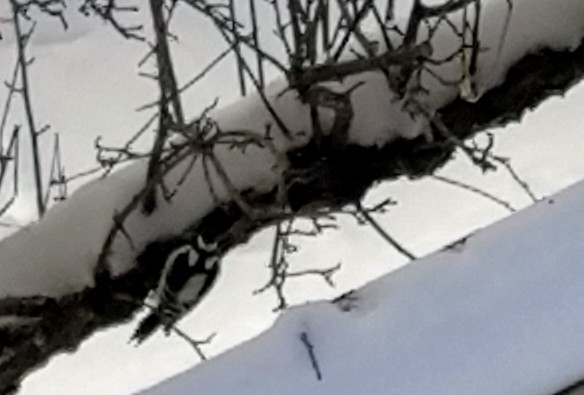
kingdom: Animalia
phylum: Chordata
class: Aves
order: Piciformes
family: Picidae
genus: Dryobates
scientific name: Dryobates pubescens
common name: Downy woodpecker
